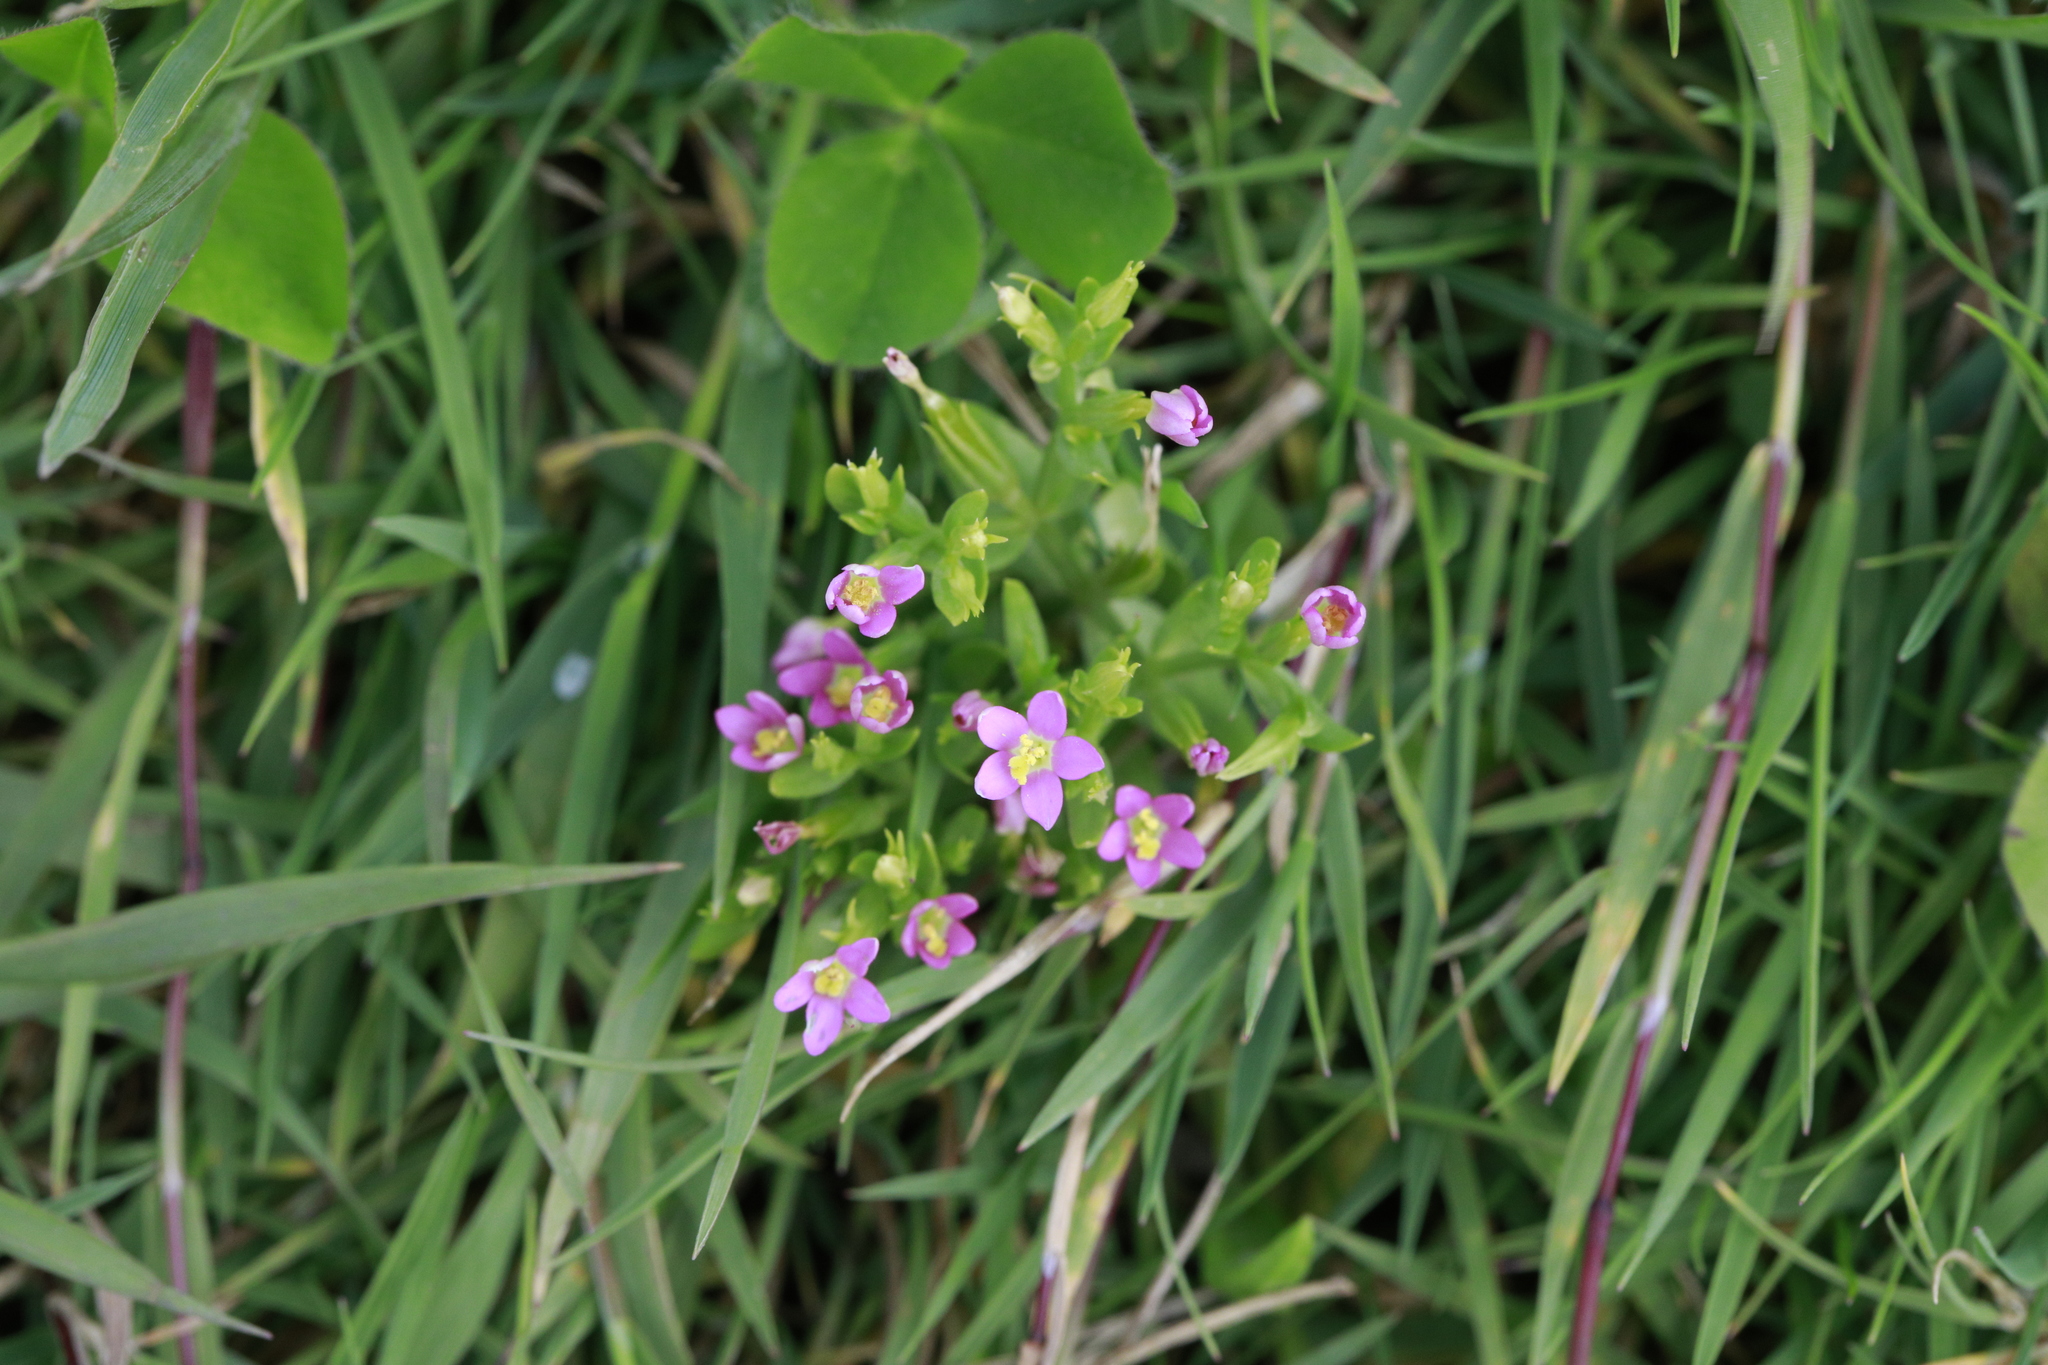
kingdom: Plantae
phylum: Tracheophyta
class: Magnoliopsida
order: Gentianales
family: Gentianaceae
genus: Centaurium
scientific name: Centaurium littorale
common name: Seaside centaury
